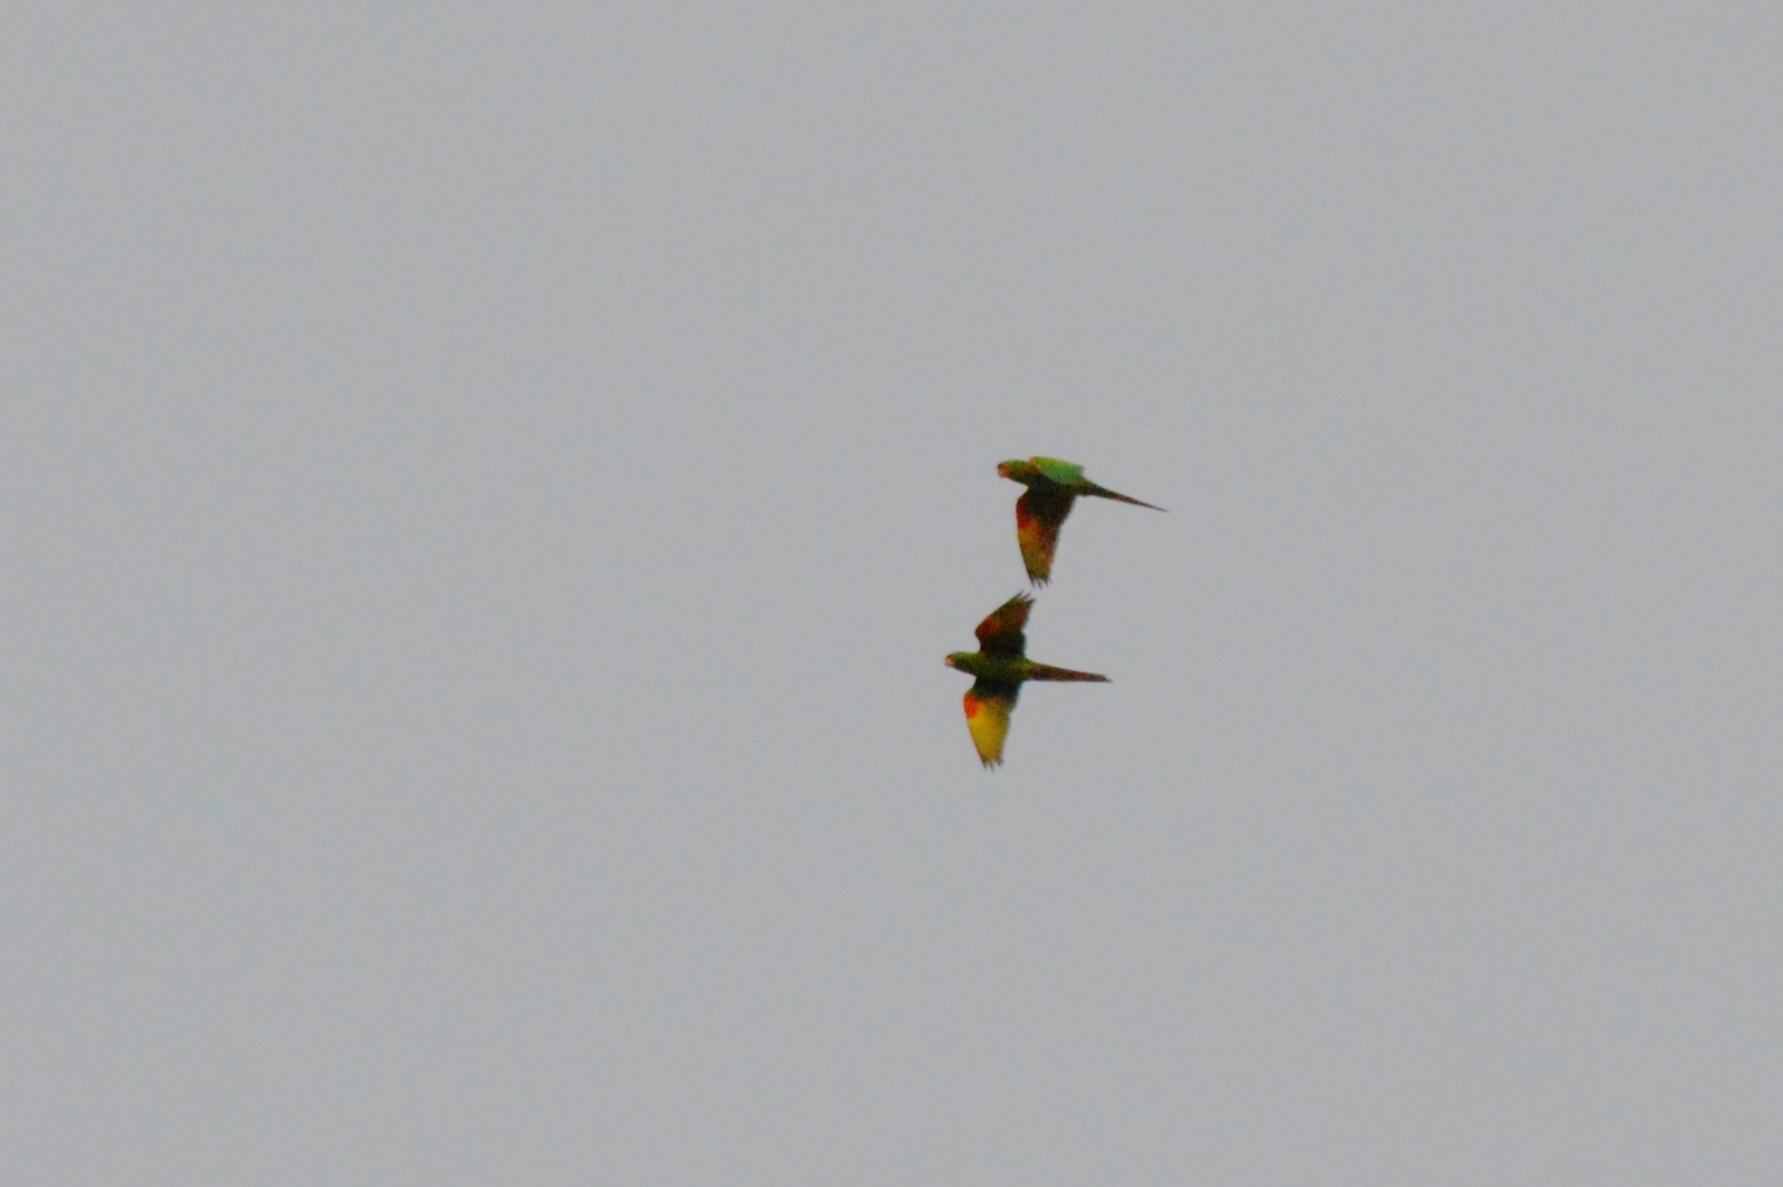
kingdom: Animalia
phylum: Chordata
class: Aves
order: Psittaciformes
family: Psittacidae
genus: Aratinga
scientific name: Aratinga leucophthalma
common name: White-eyed parakeet
